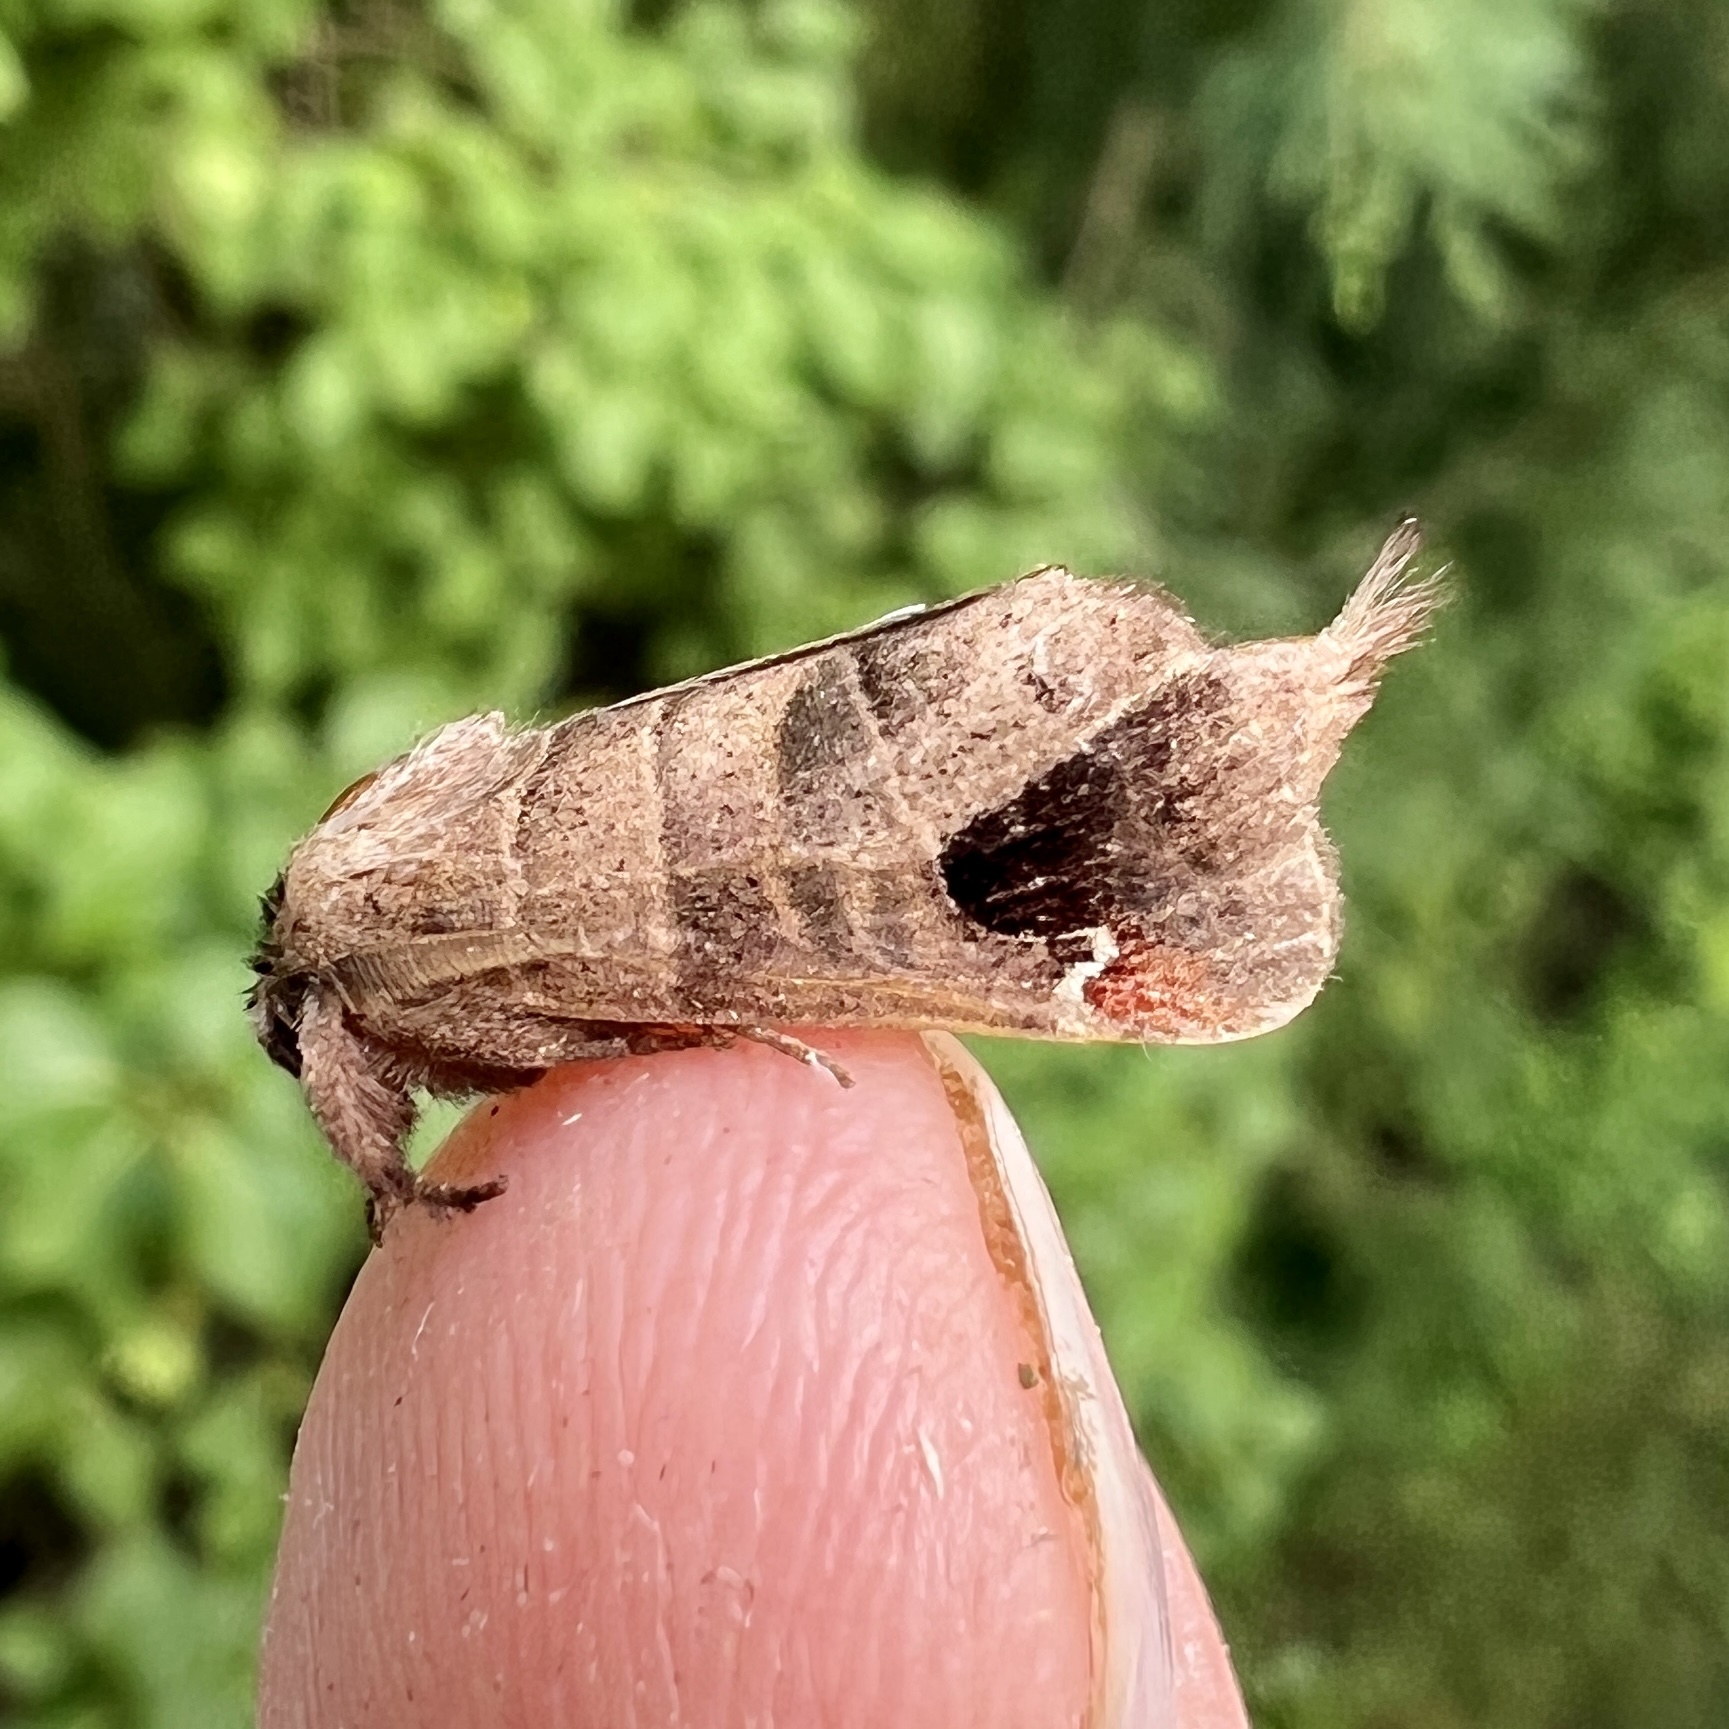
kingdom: Animalia
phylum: Arthropoda
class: Insecta
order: Lepidoptera
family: Notodontidae
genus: Clostera
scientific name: Clostera albosigma
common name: Sigmoid prominent
